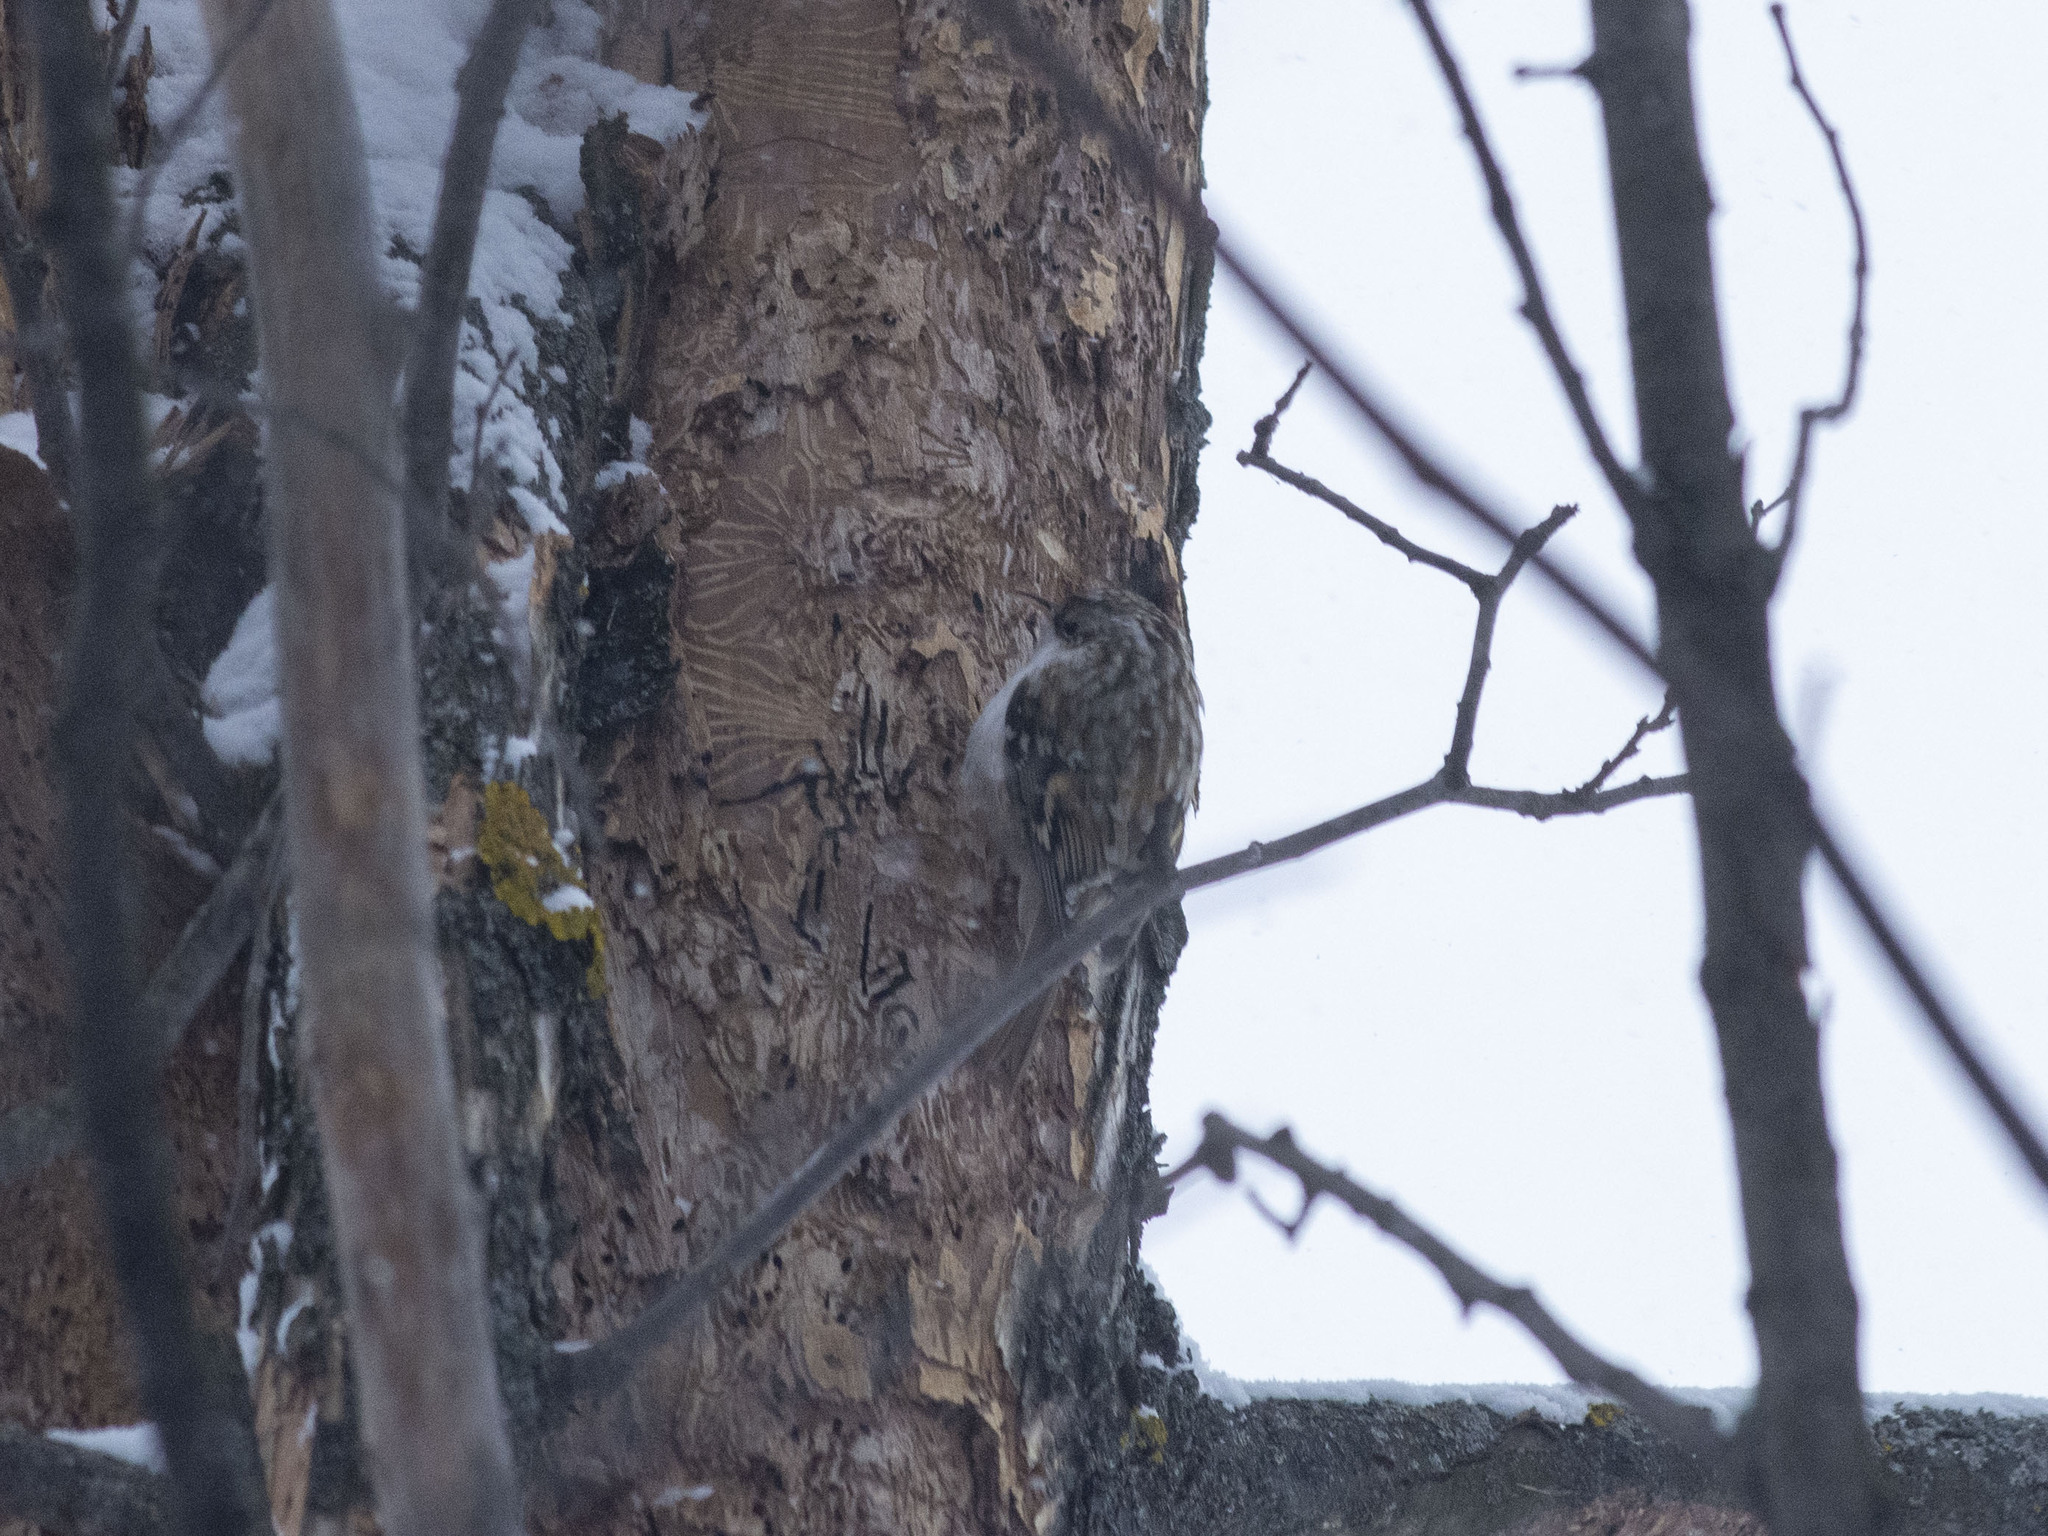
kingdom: Animalia
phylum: Chordata
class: Aves
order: Passeriformes
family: Certhiidae
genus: Certhia
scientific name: Certhia familiaris
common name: Eurasian treecreeper
